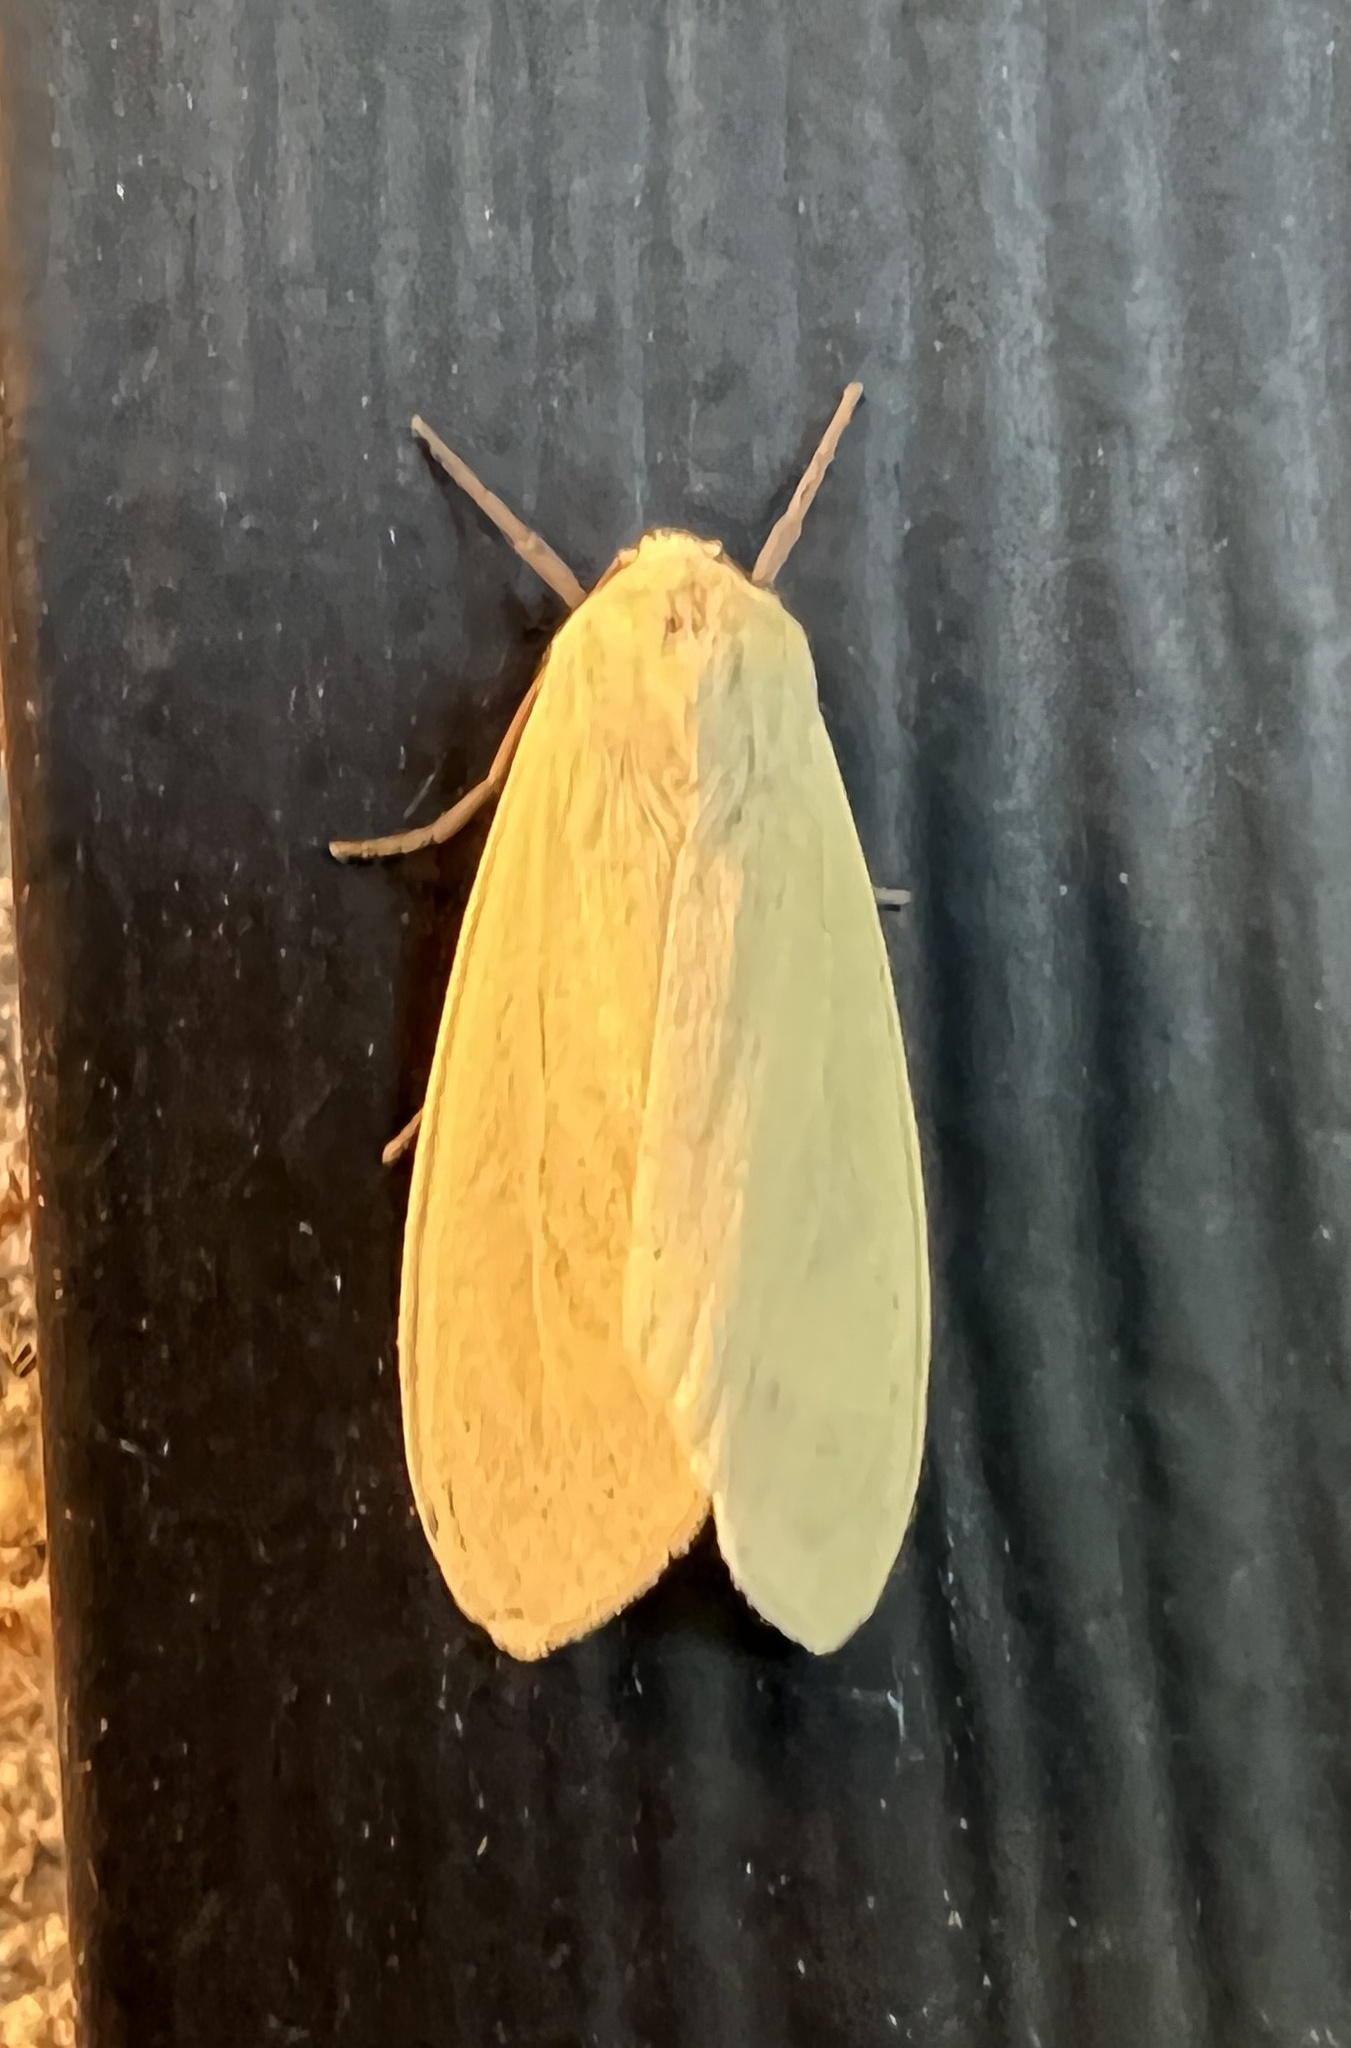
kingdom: Animalia
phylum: Arthropoda
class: Insecta
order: Lepidoptera
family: Erebidae
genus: Pareuchaetes
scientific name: Pareuchaetes insulata
